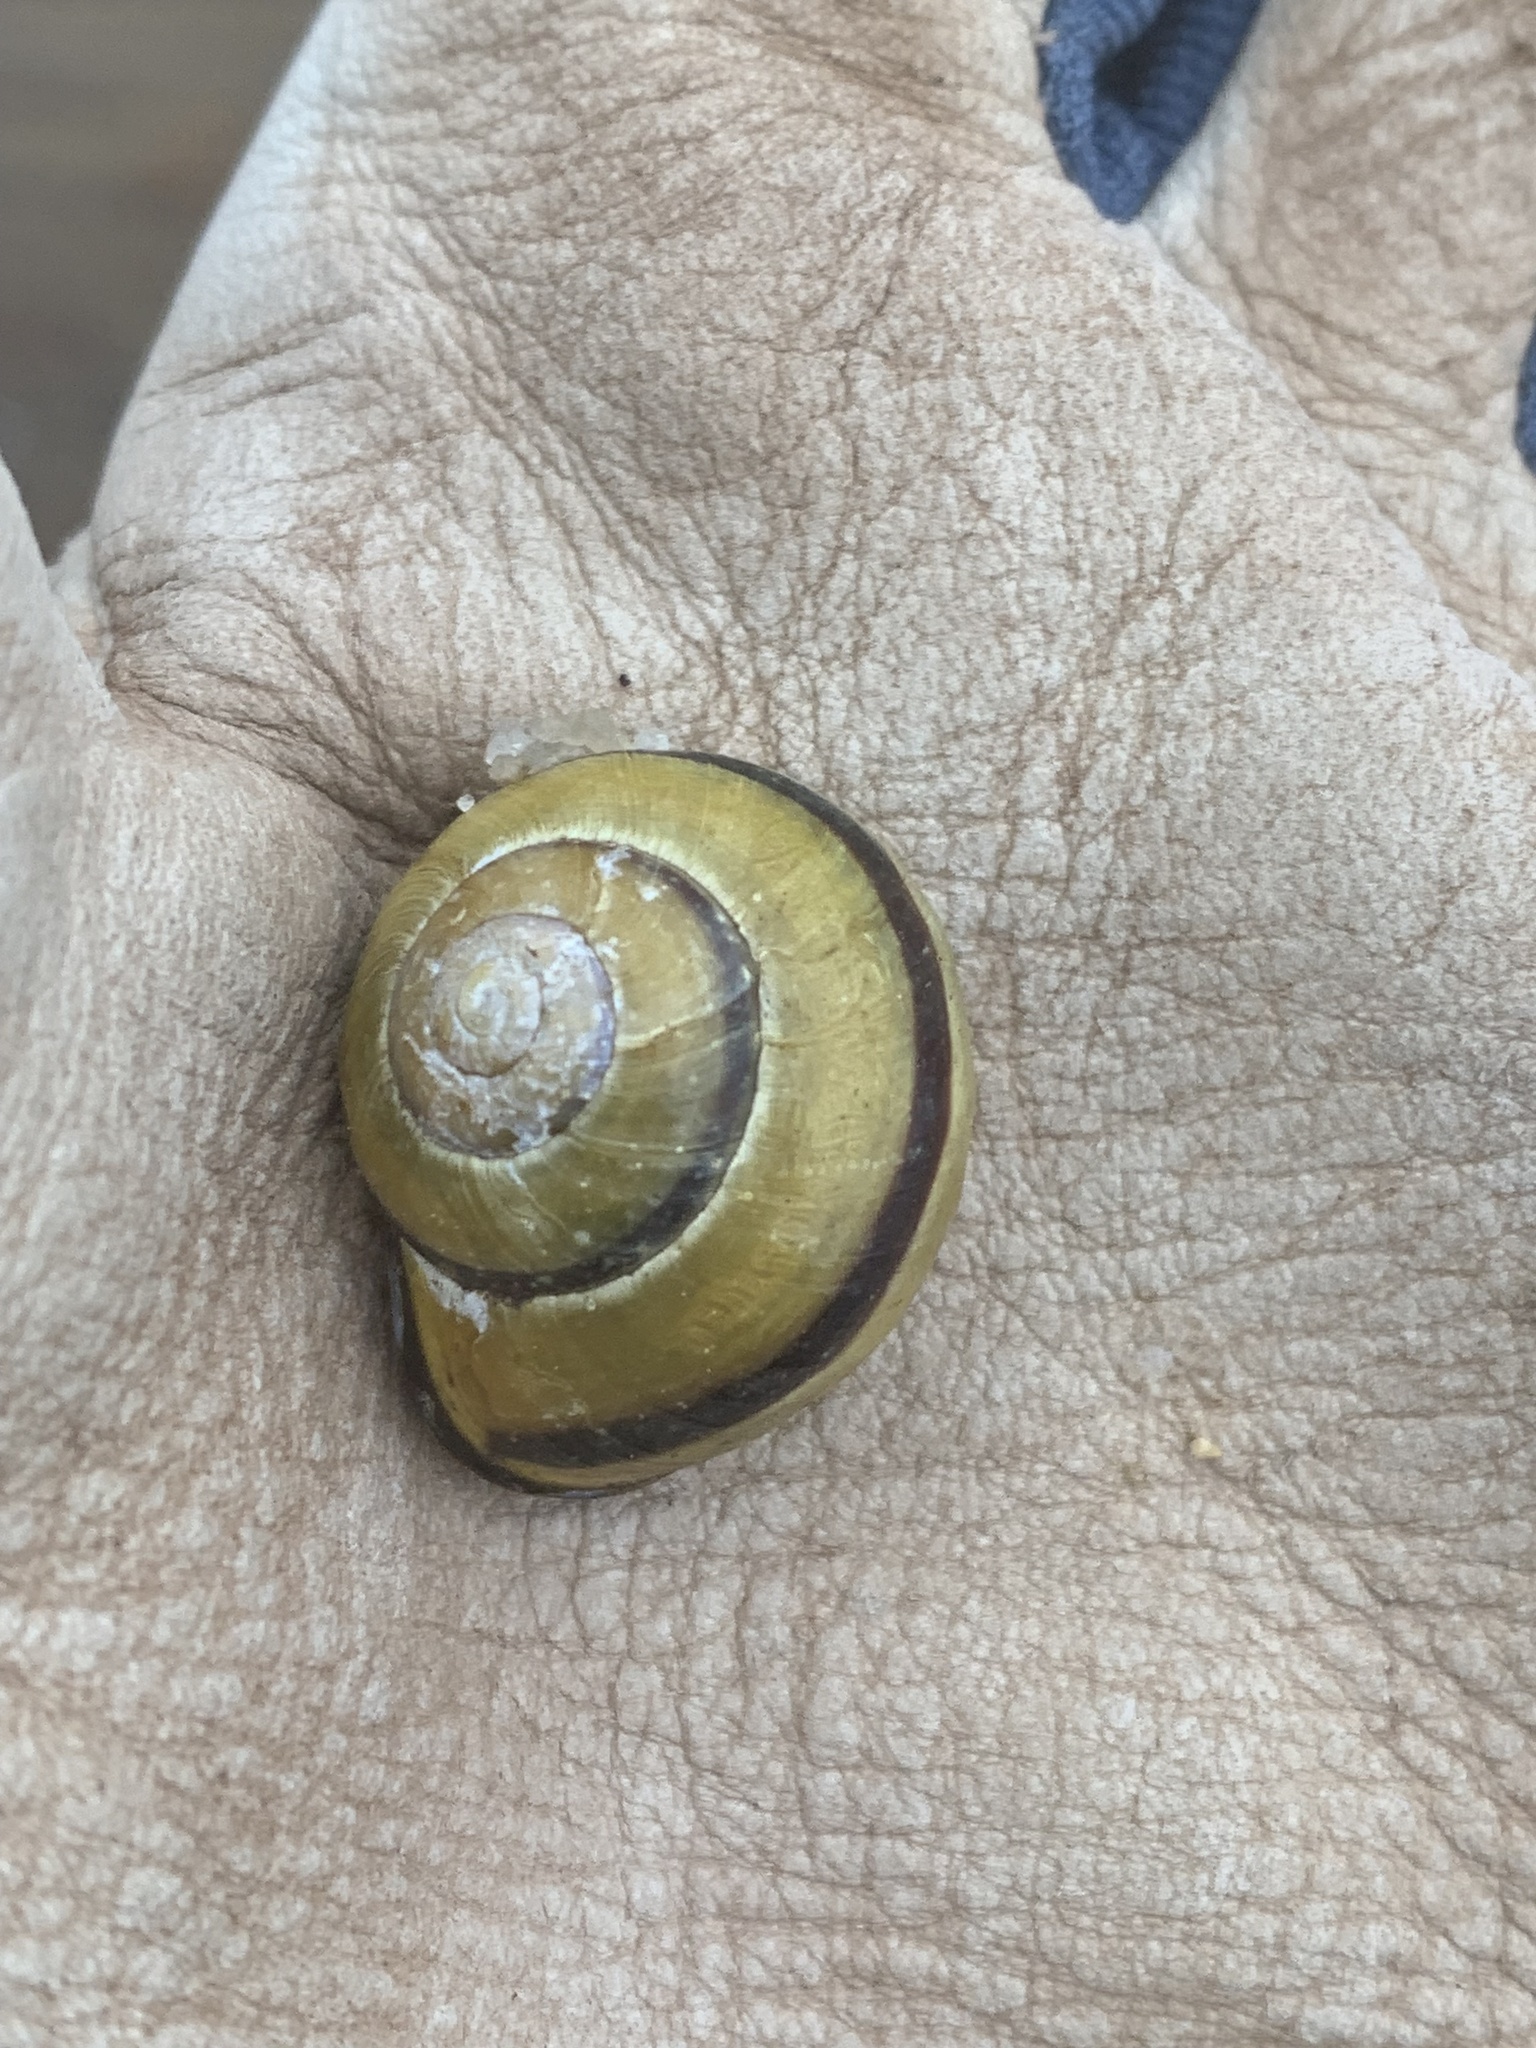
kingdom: Animalia
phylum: Mollusca
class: Gastropoda
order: Stylommatophora
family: Helicidae
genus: Cepaea
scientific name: Cepaea nemoralis
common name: Grovesnail
